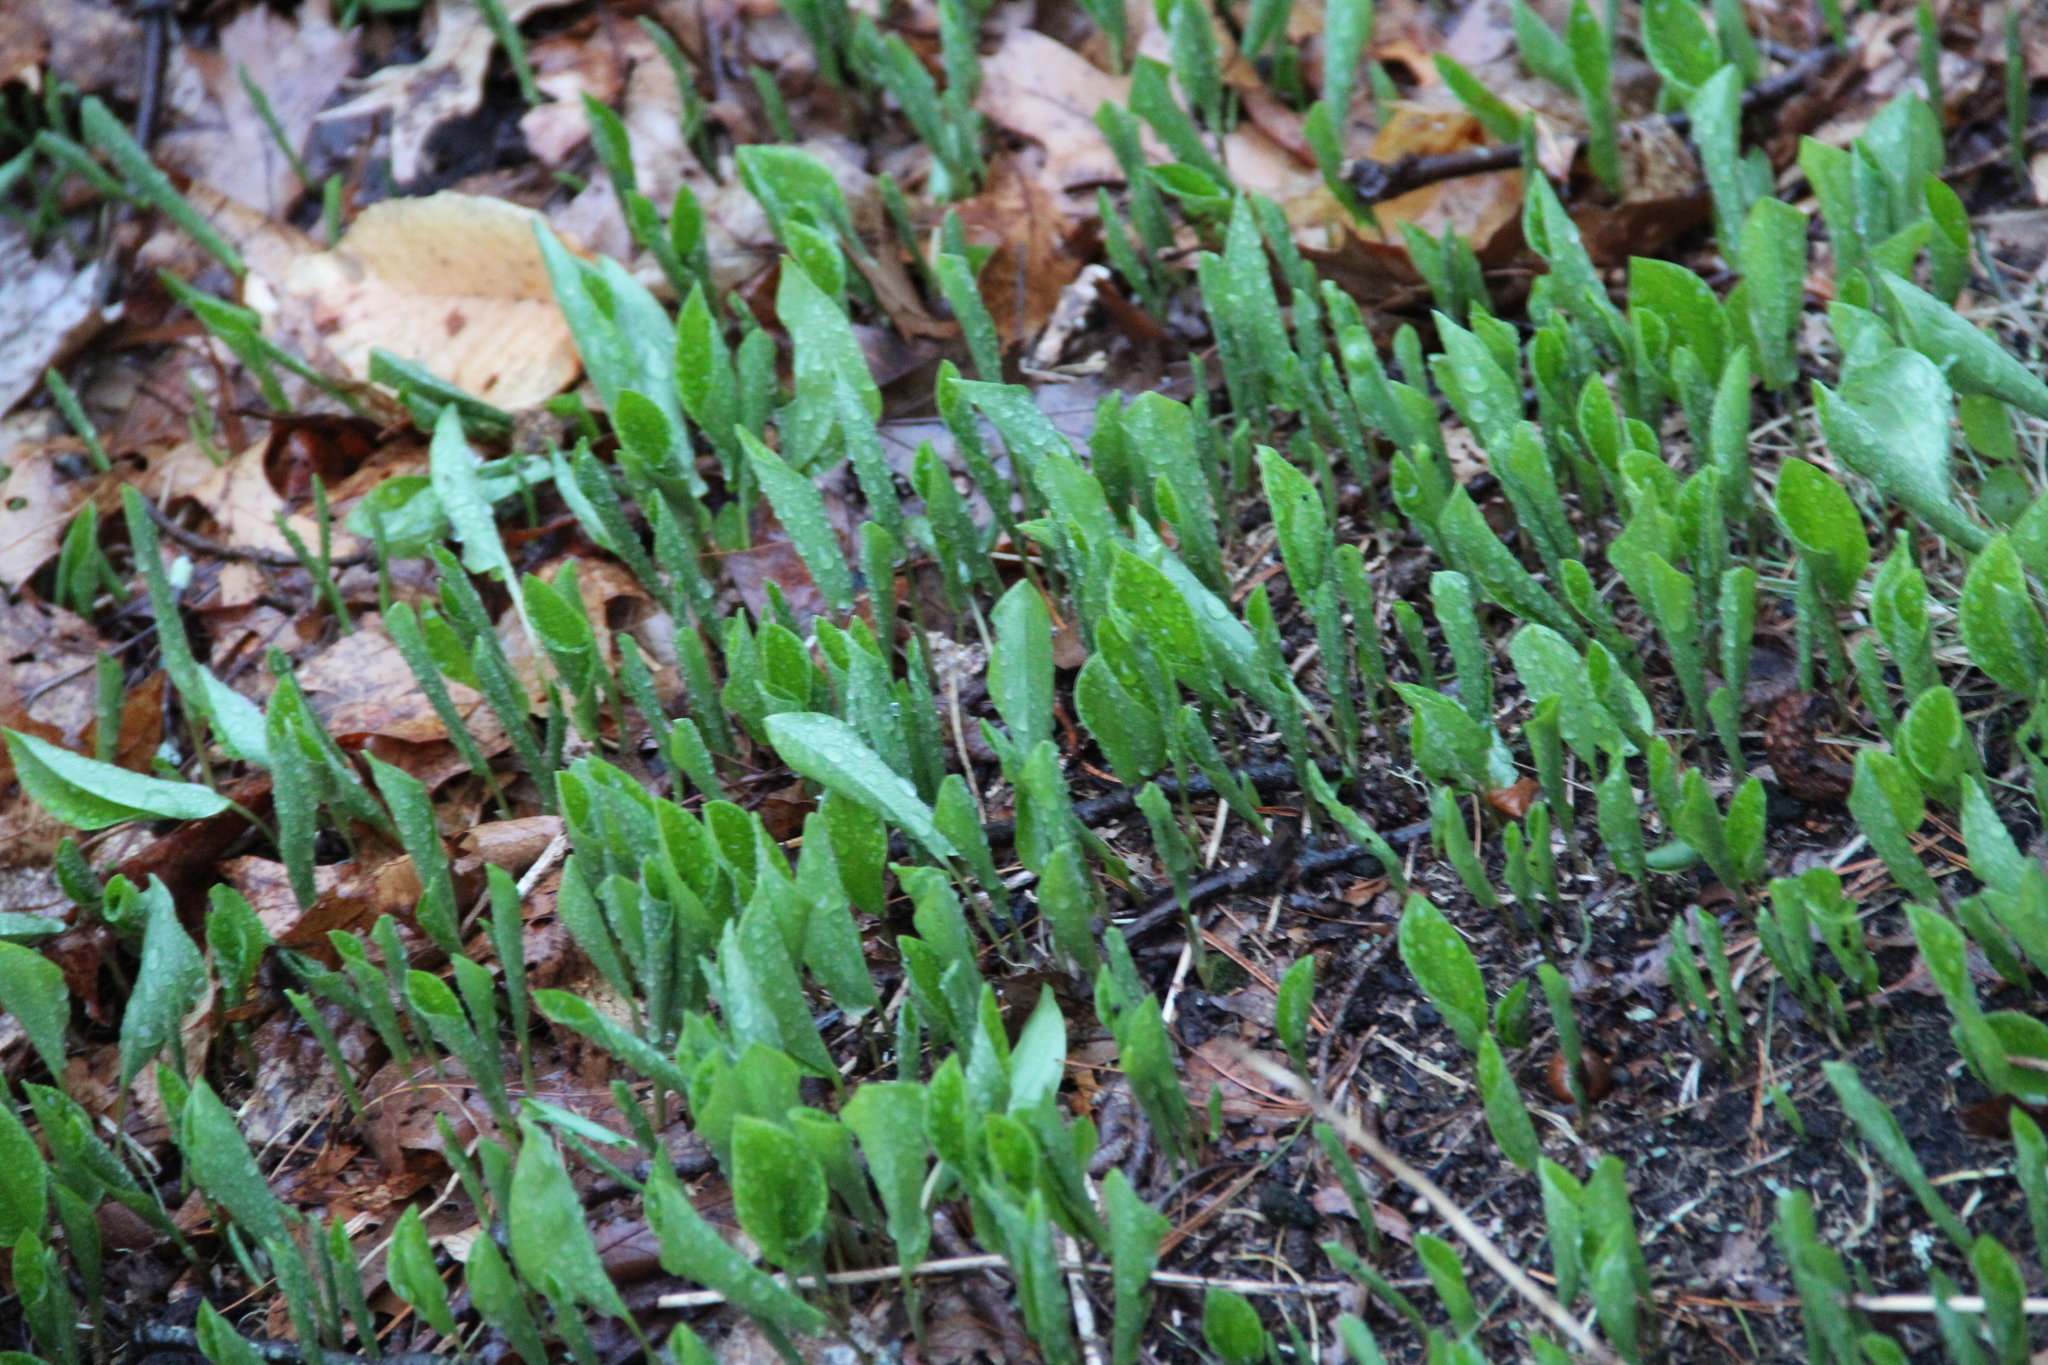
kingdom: Plantae
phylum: Tracheophyta
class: Liliopsida
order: Asparagales
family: Asparagaceae
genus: Maianthemum
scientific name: Maianthemum canadense
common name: False lily-of-the-valley
